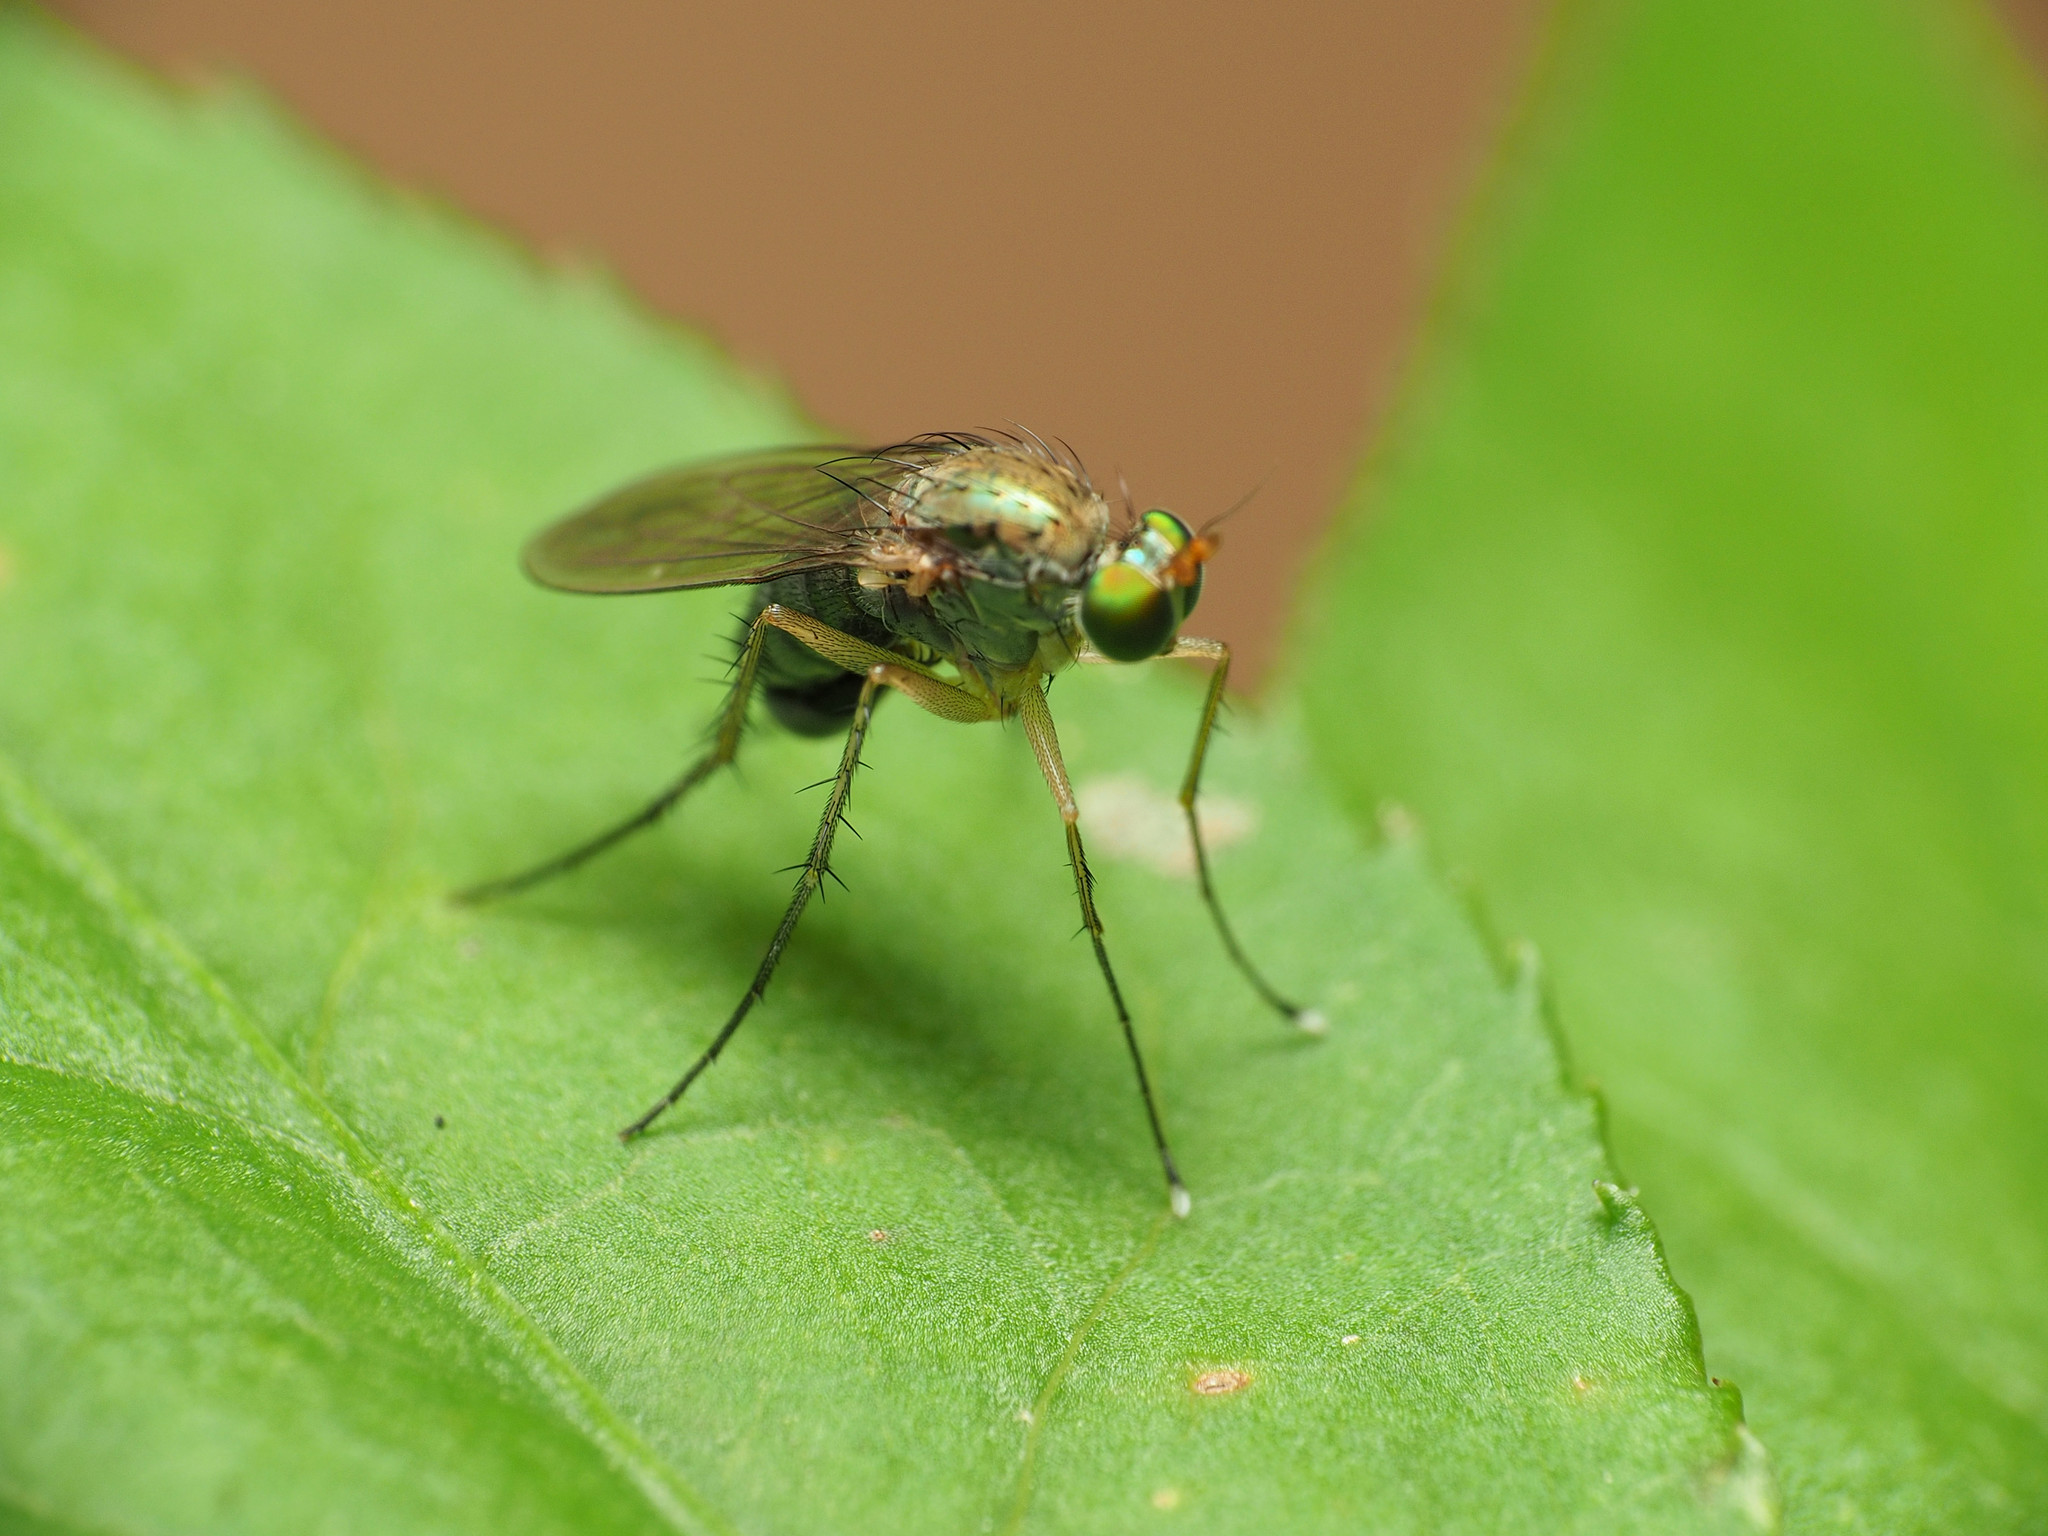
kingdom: Animalia
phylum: Arthropoda
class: Insecta
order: Diptera
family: Dolichopodidae
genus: Dolichopus
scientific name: Dolichopus funditor
